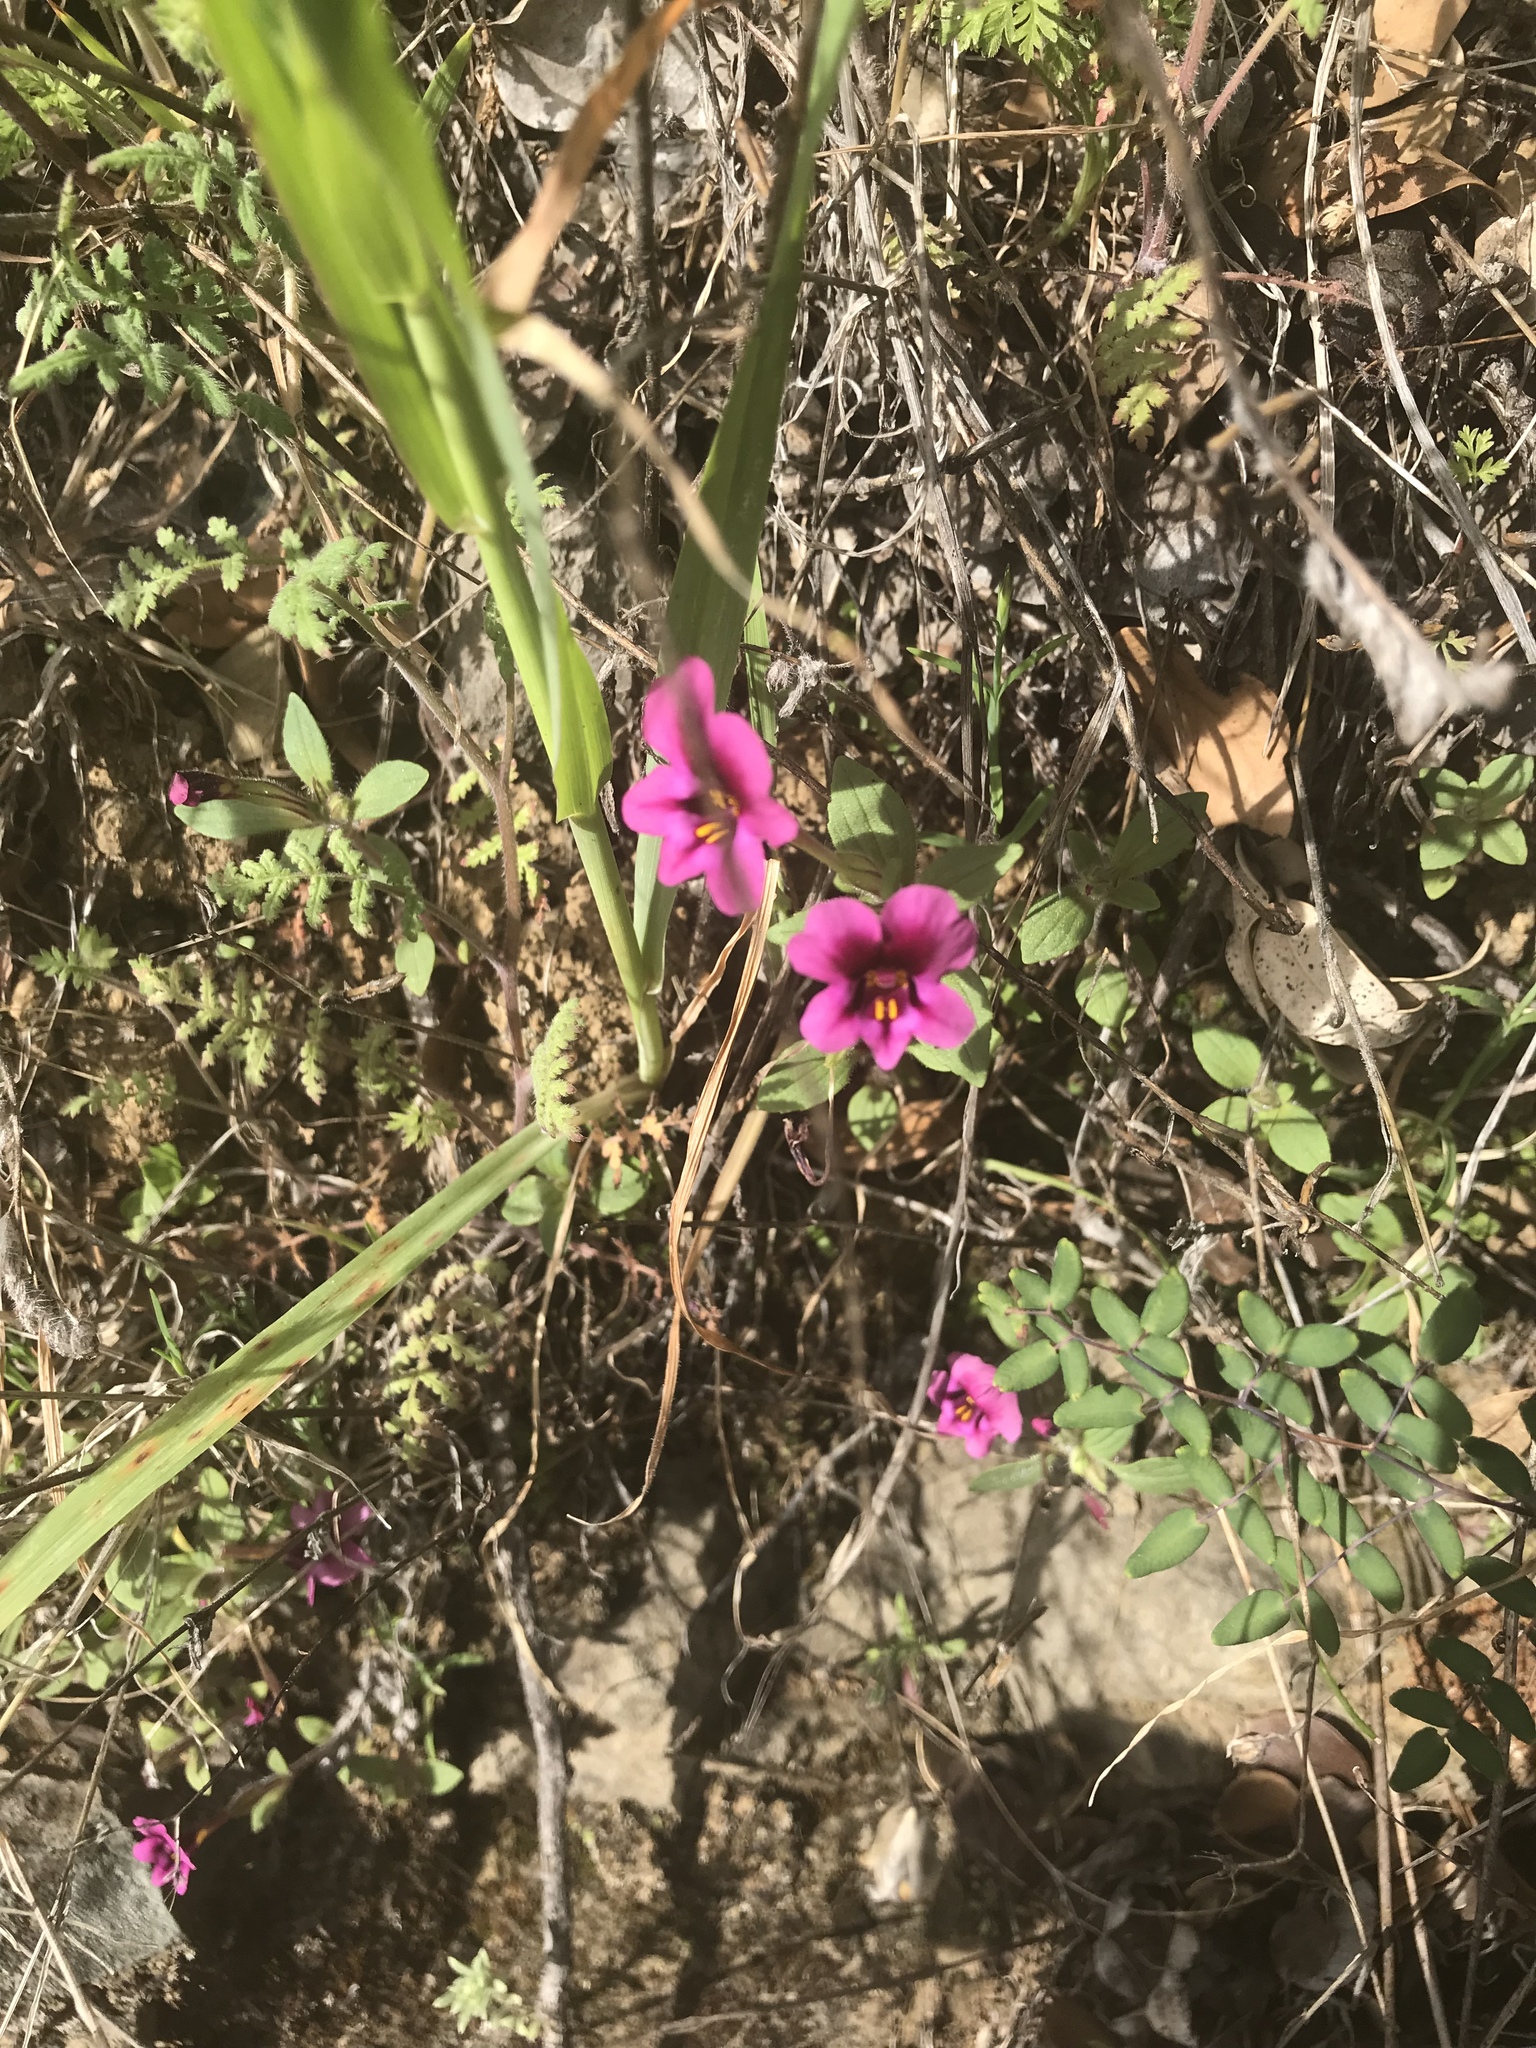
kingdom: Plantae
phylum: Tracheophyta
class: Magnoliopsida
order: Lamiales
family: Phrymaceae
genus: Diplacus
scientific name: Diplacus kelloggii
